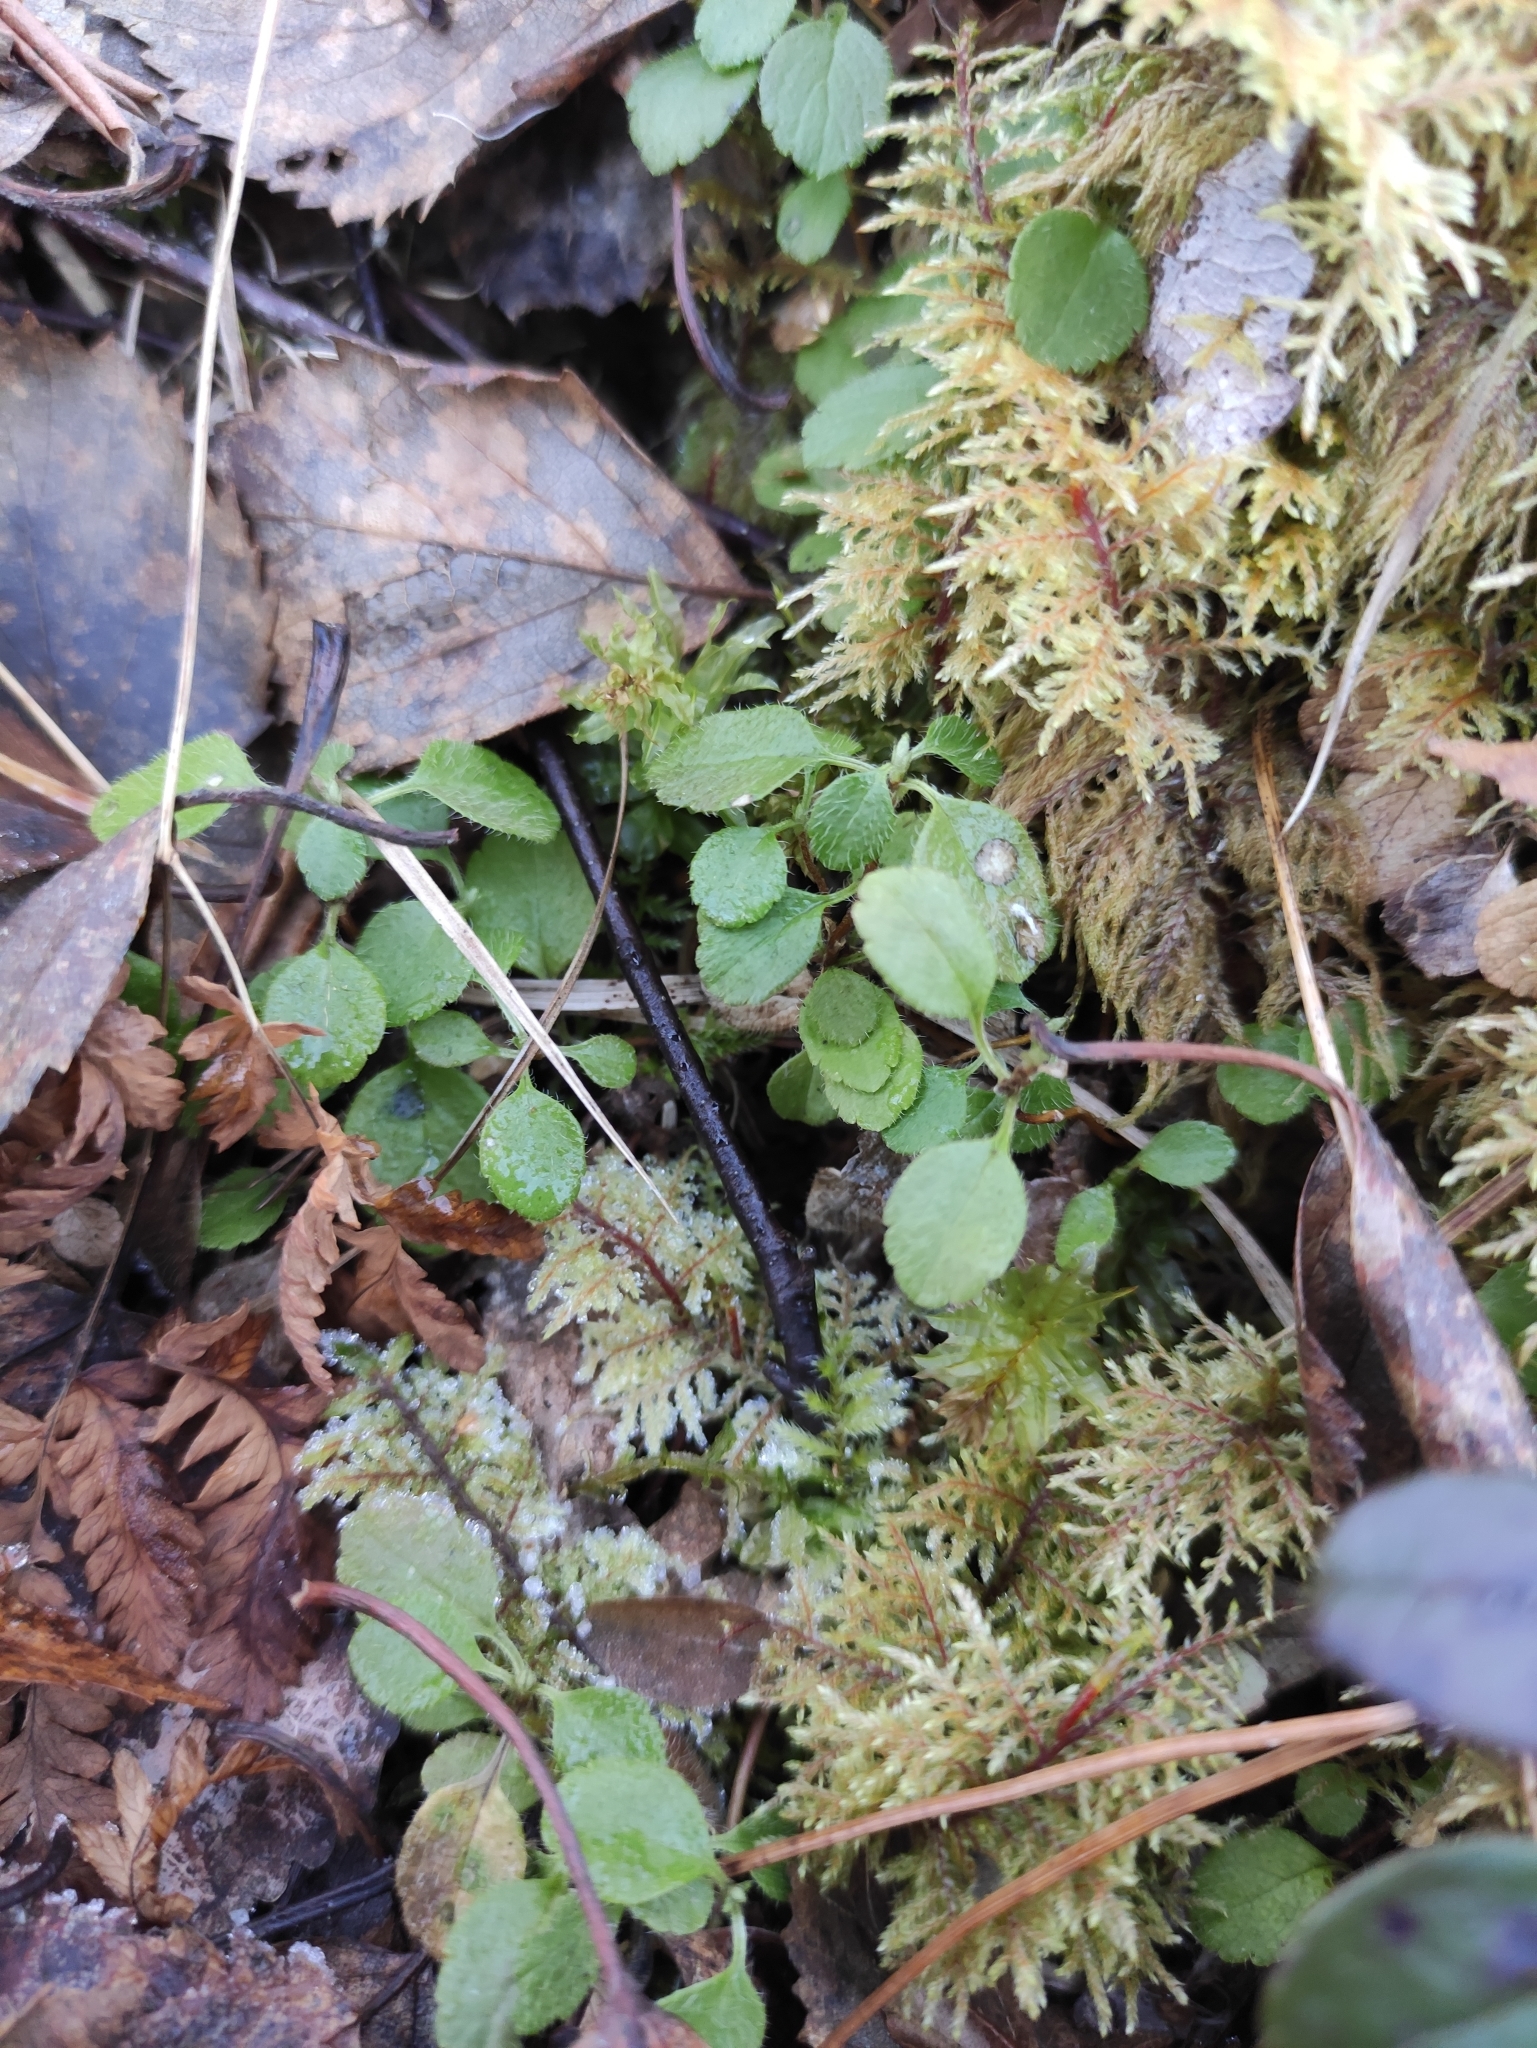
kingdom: Plantae
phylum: Tracheophyta
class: Magnoliopsida
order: Dipsacales
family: Caprifoliaceae
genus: Linnaea
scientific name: Linnaea borealis
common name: Twinflower
